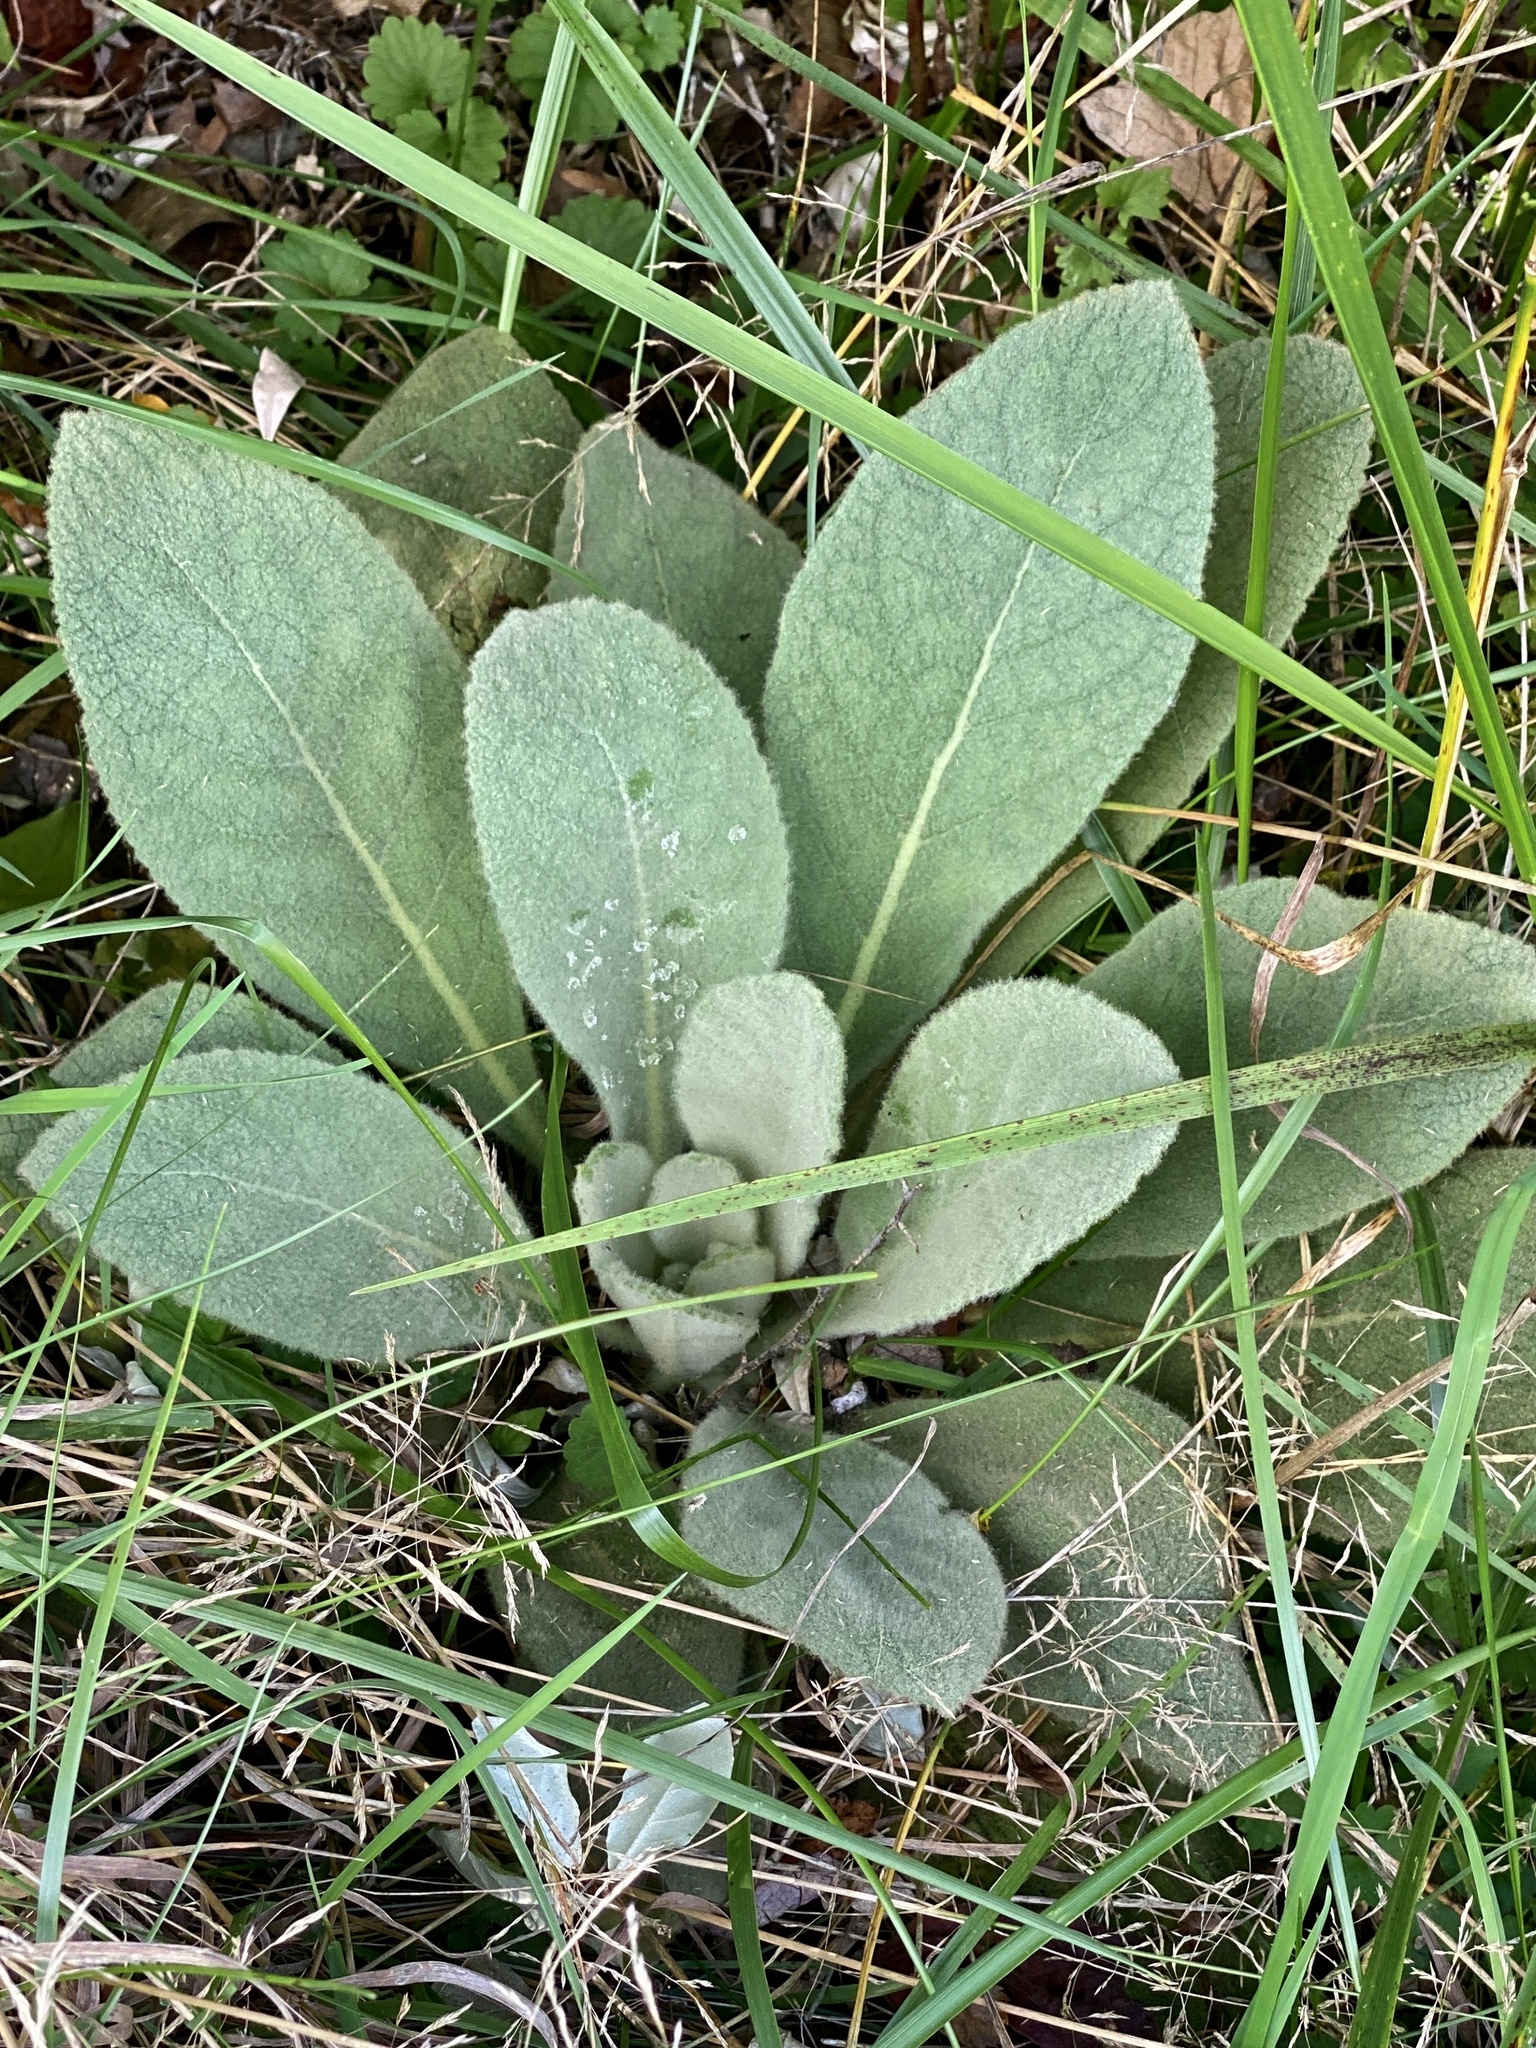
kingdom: Plantae
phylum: Tracheophyta
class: Magnoliopsida
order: Lamiales
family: Scrophulariaceae
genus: Verbascum
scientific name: Verbascum thapsus
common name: Common mullein
